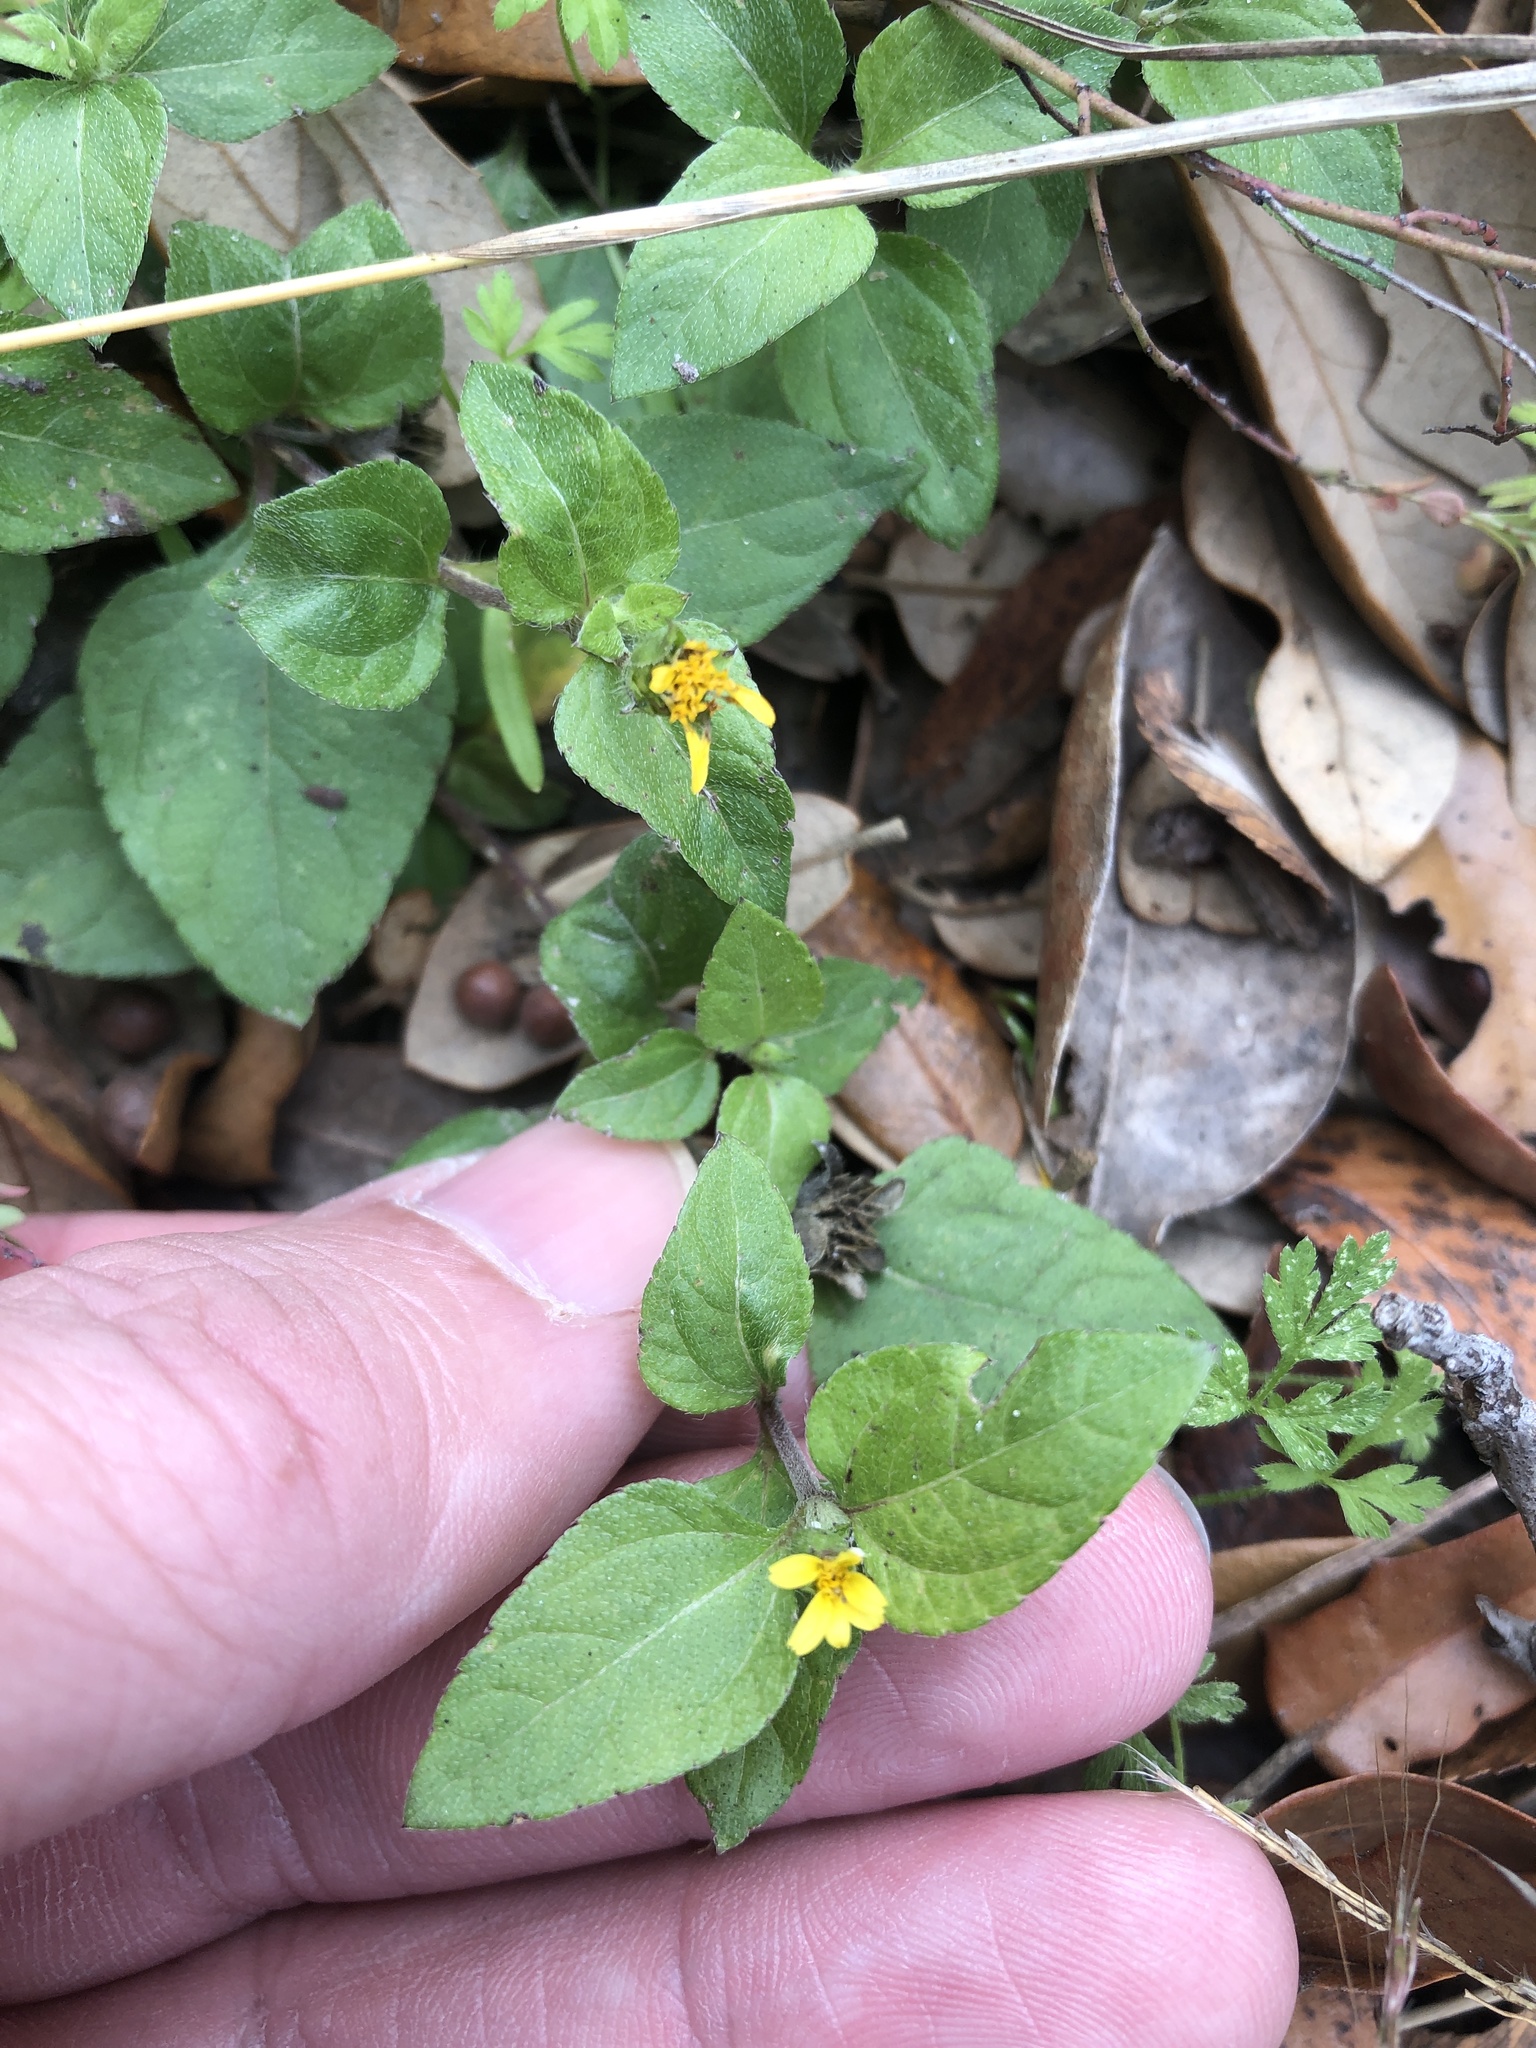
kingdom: Plantae
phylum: Tracheophyta
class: Magnoliopsida
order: Asterales
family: Asteraceae
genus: Calyptocarpus
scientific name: Calyptocarpus vialis
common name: Straggler daisy
